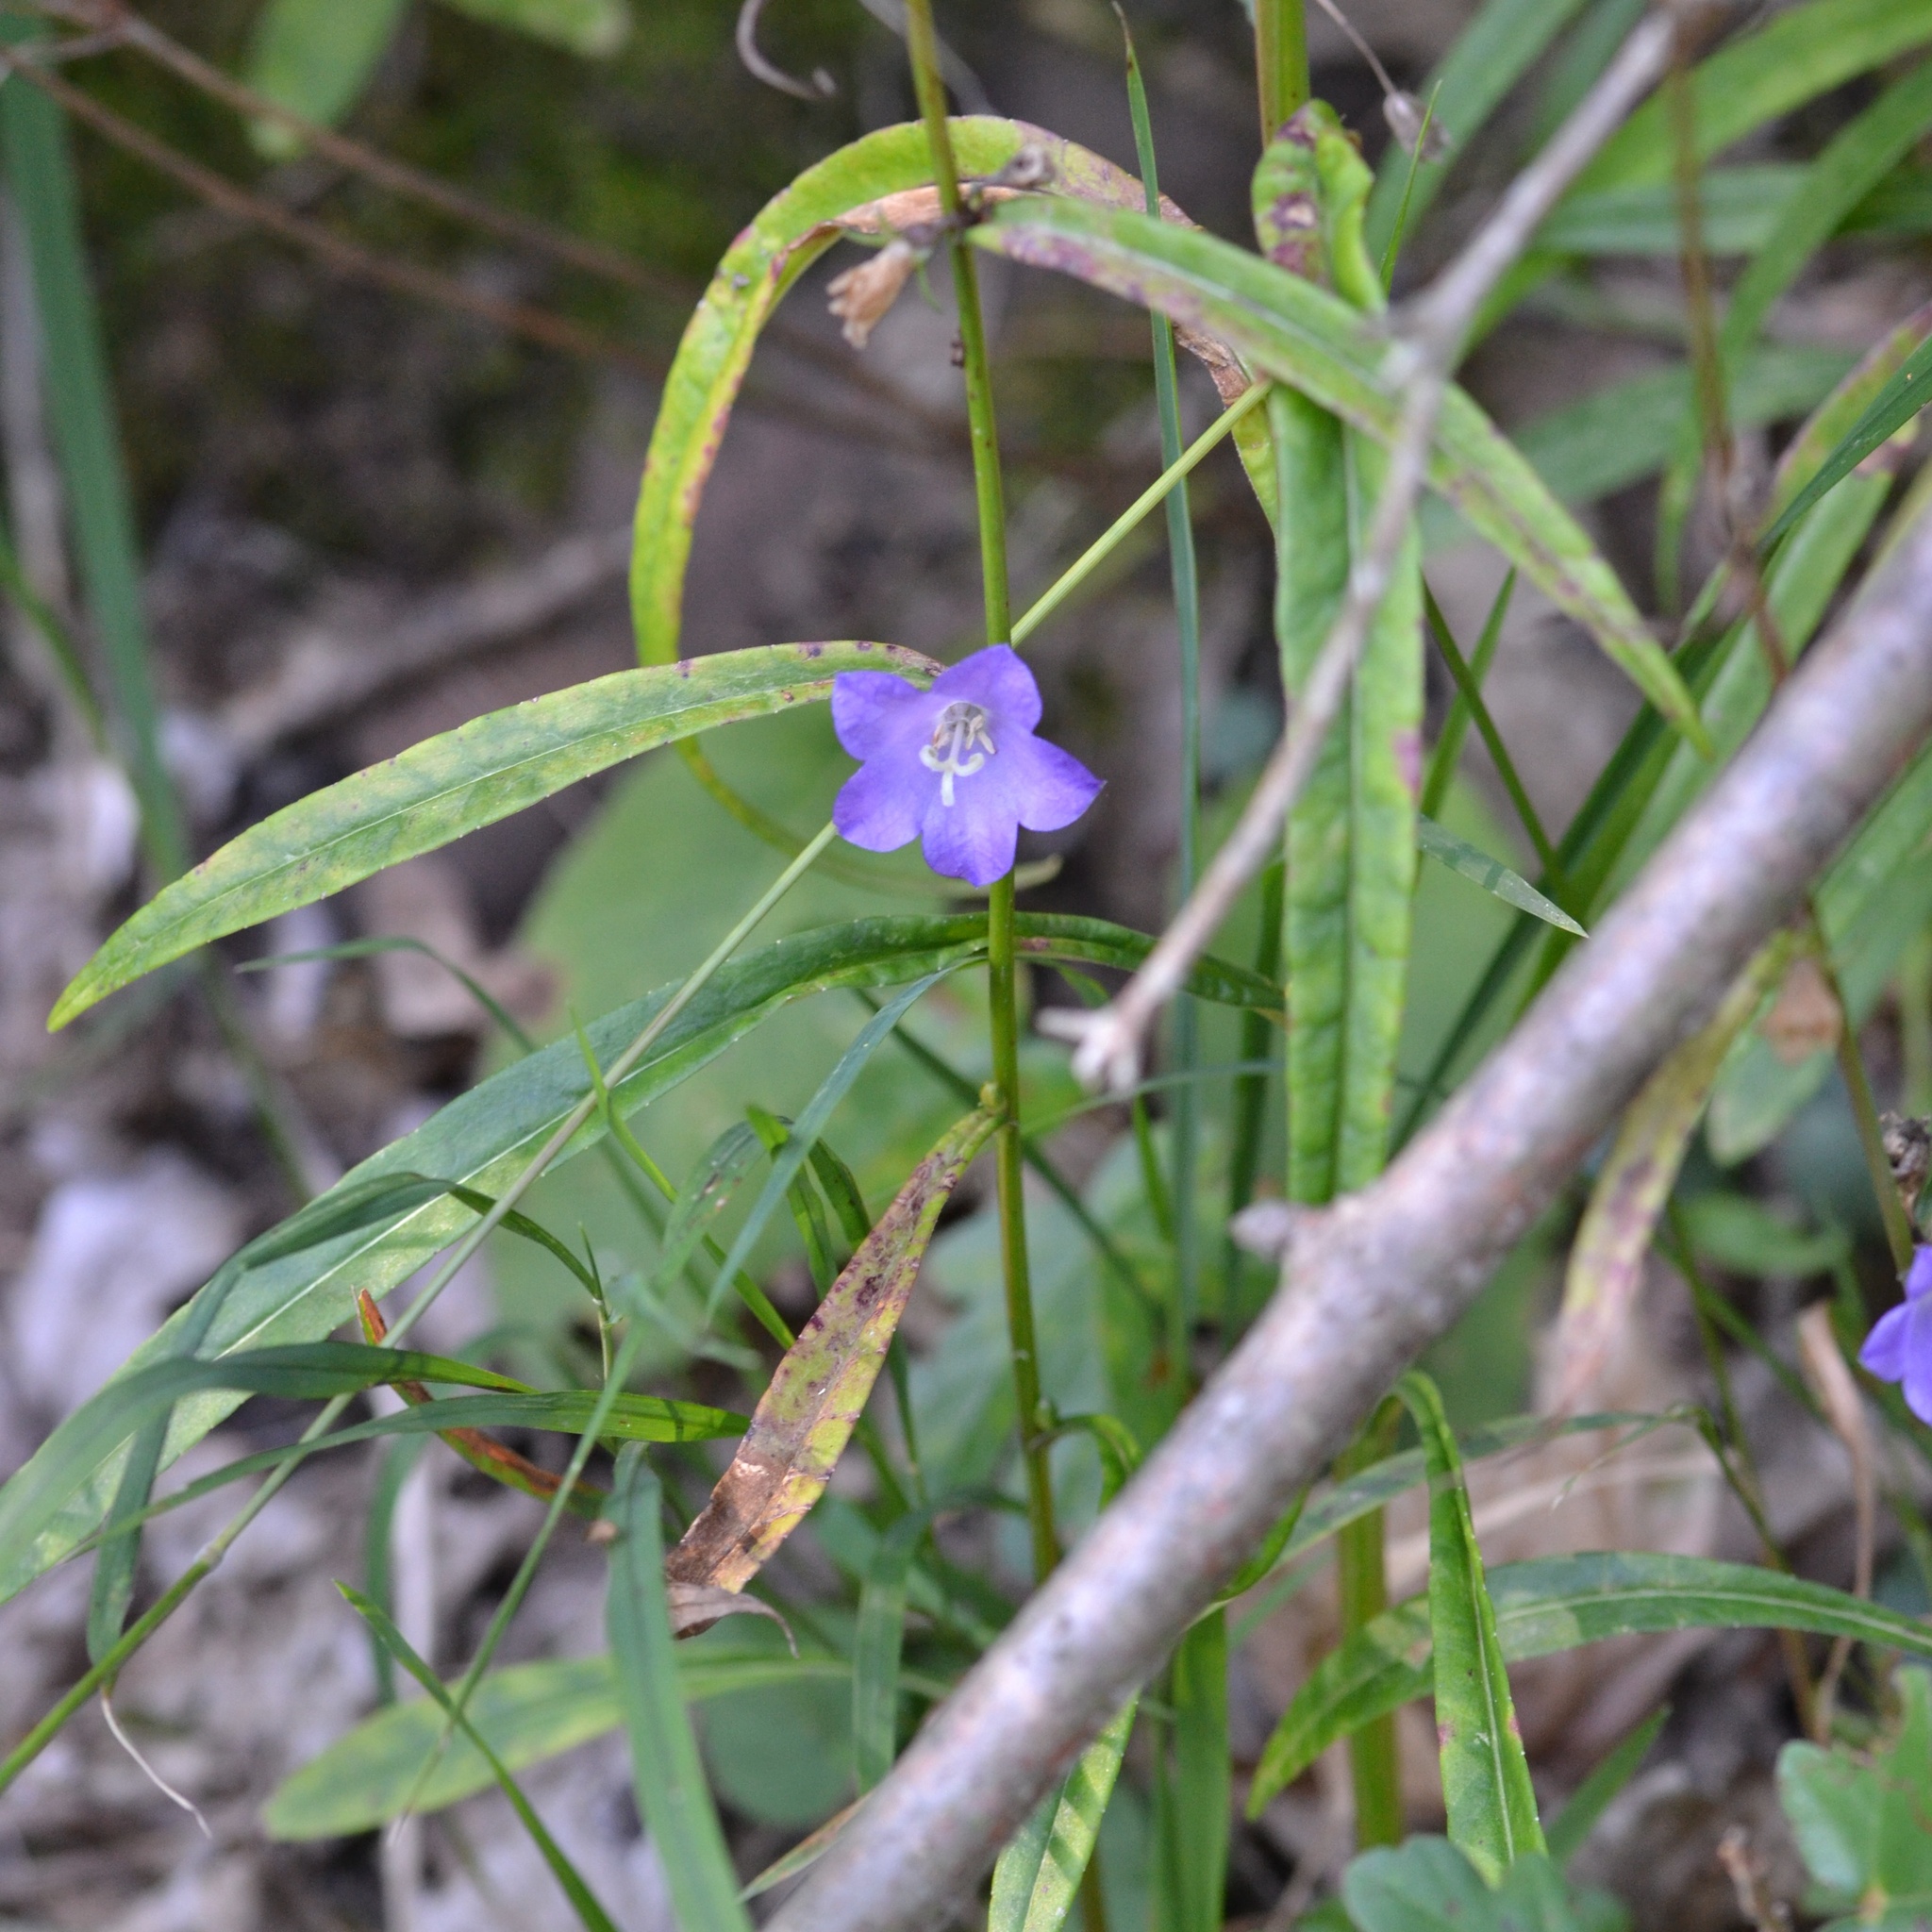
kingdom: Plantae
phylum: Tracheophyta
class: Magnoliopsida
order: Asterales
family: Campanulaceae
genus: Campanula
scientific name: Campanula persicifolia
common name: Peach-leaved bellflower
